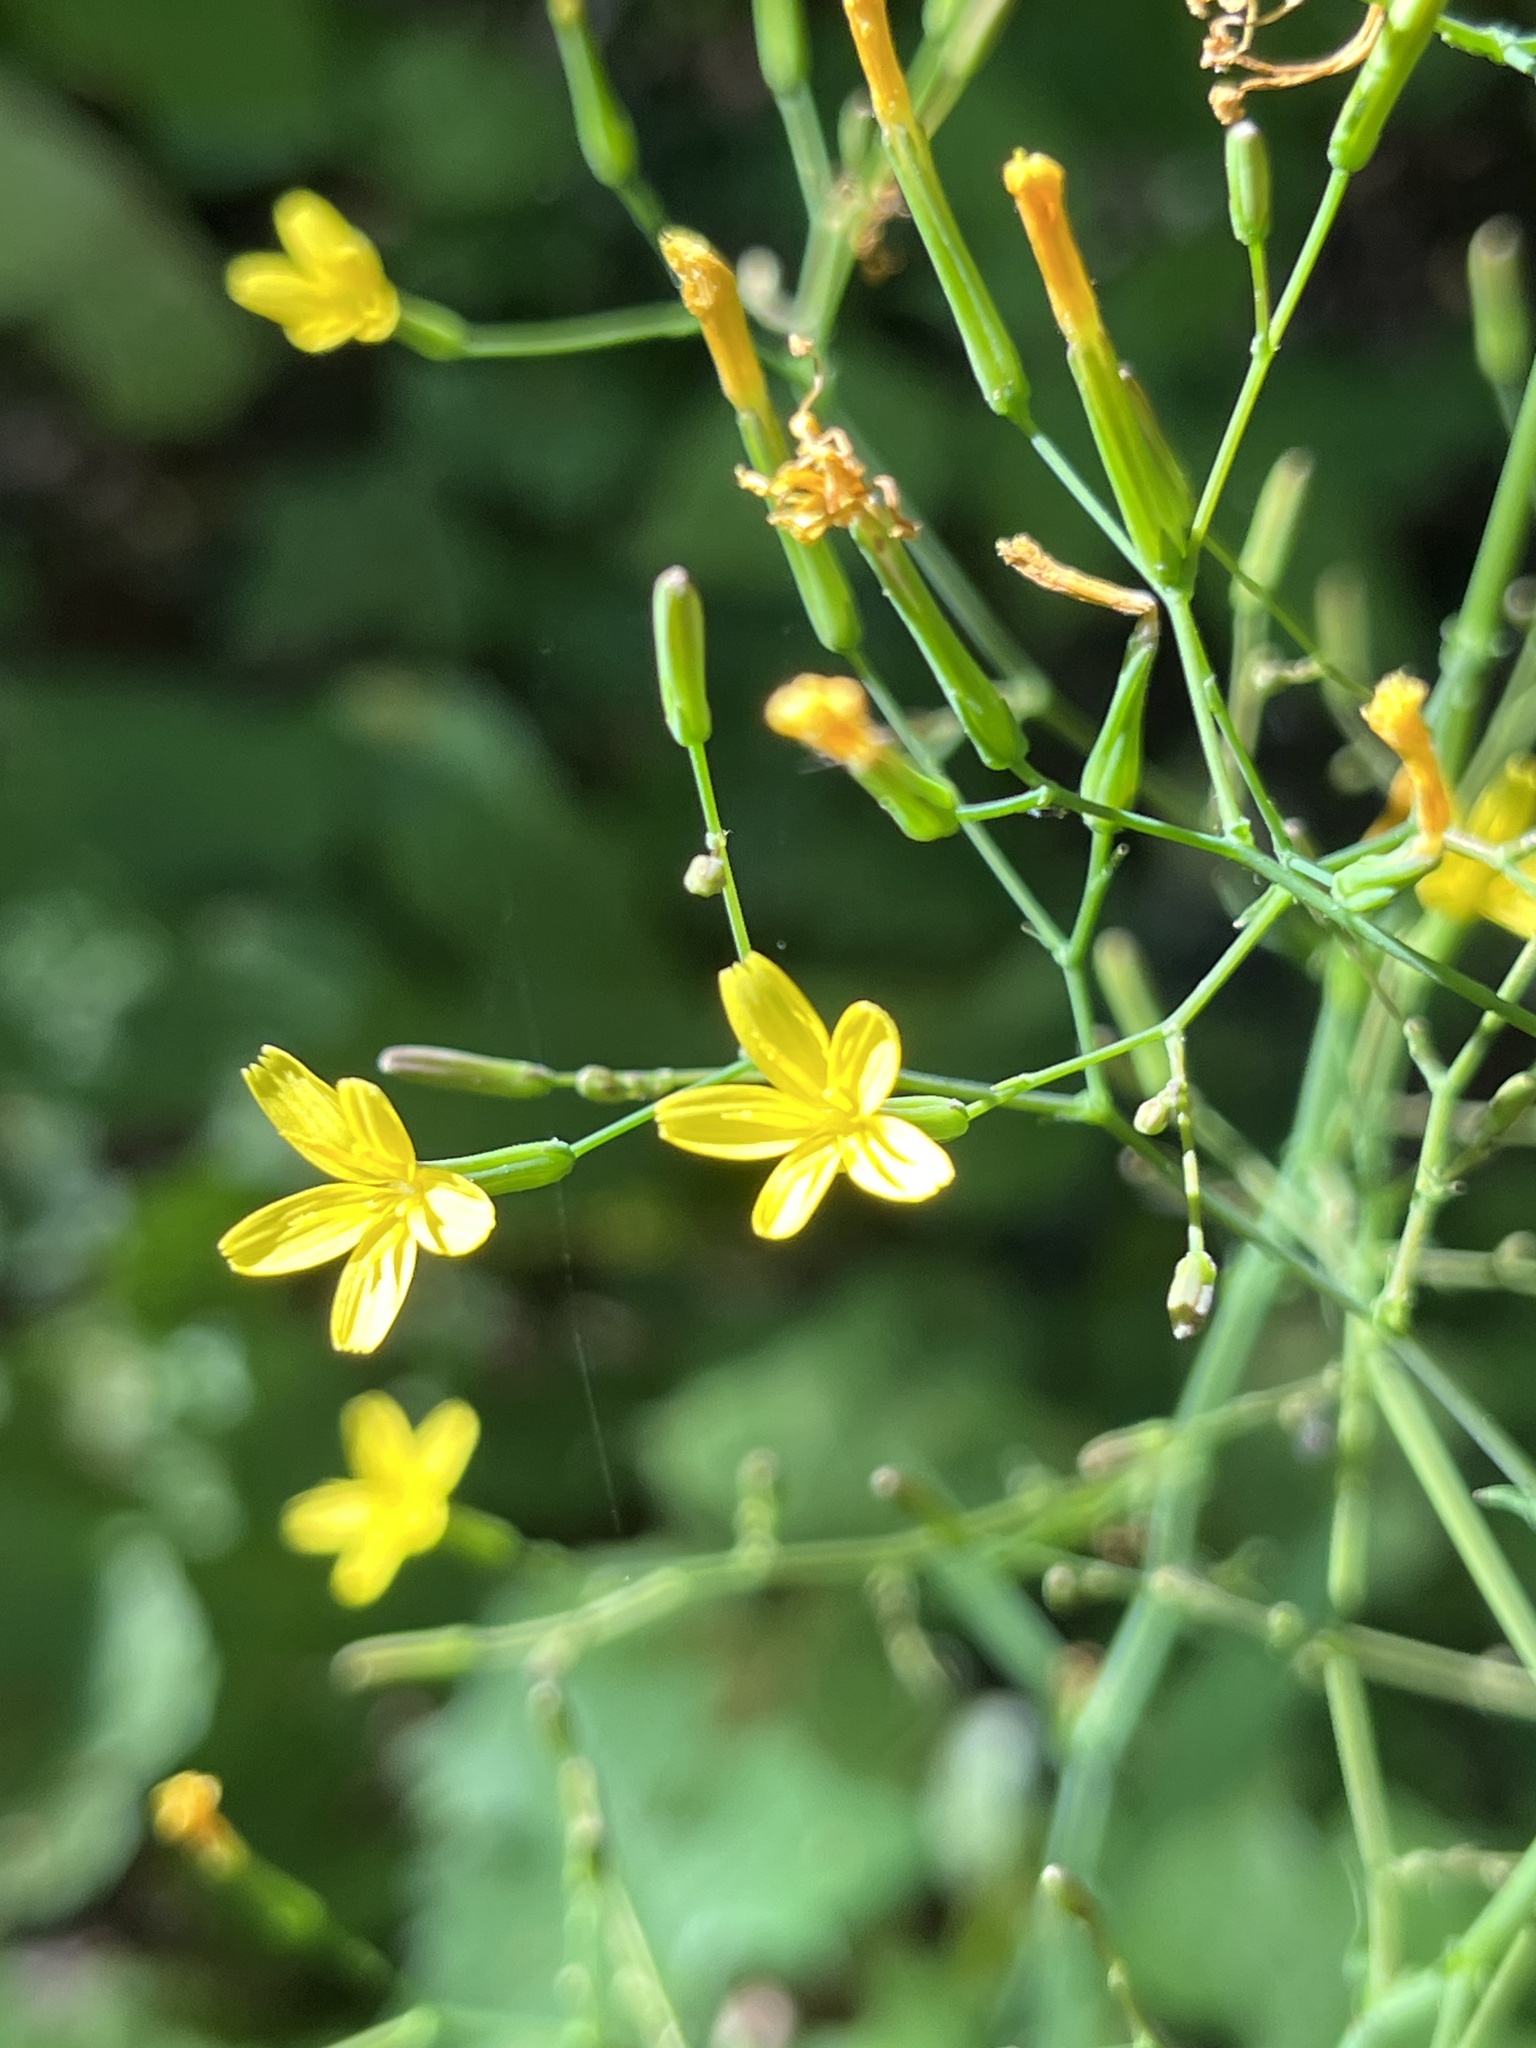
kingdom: Plantae
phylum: Tracheophyta
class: Magnoliopsida
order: Asterales
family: Asteraceae
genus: Mycelis
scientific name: Mycelis muralis
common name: Wall lettuce
